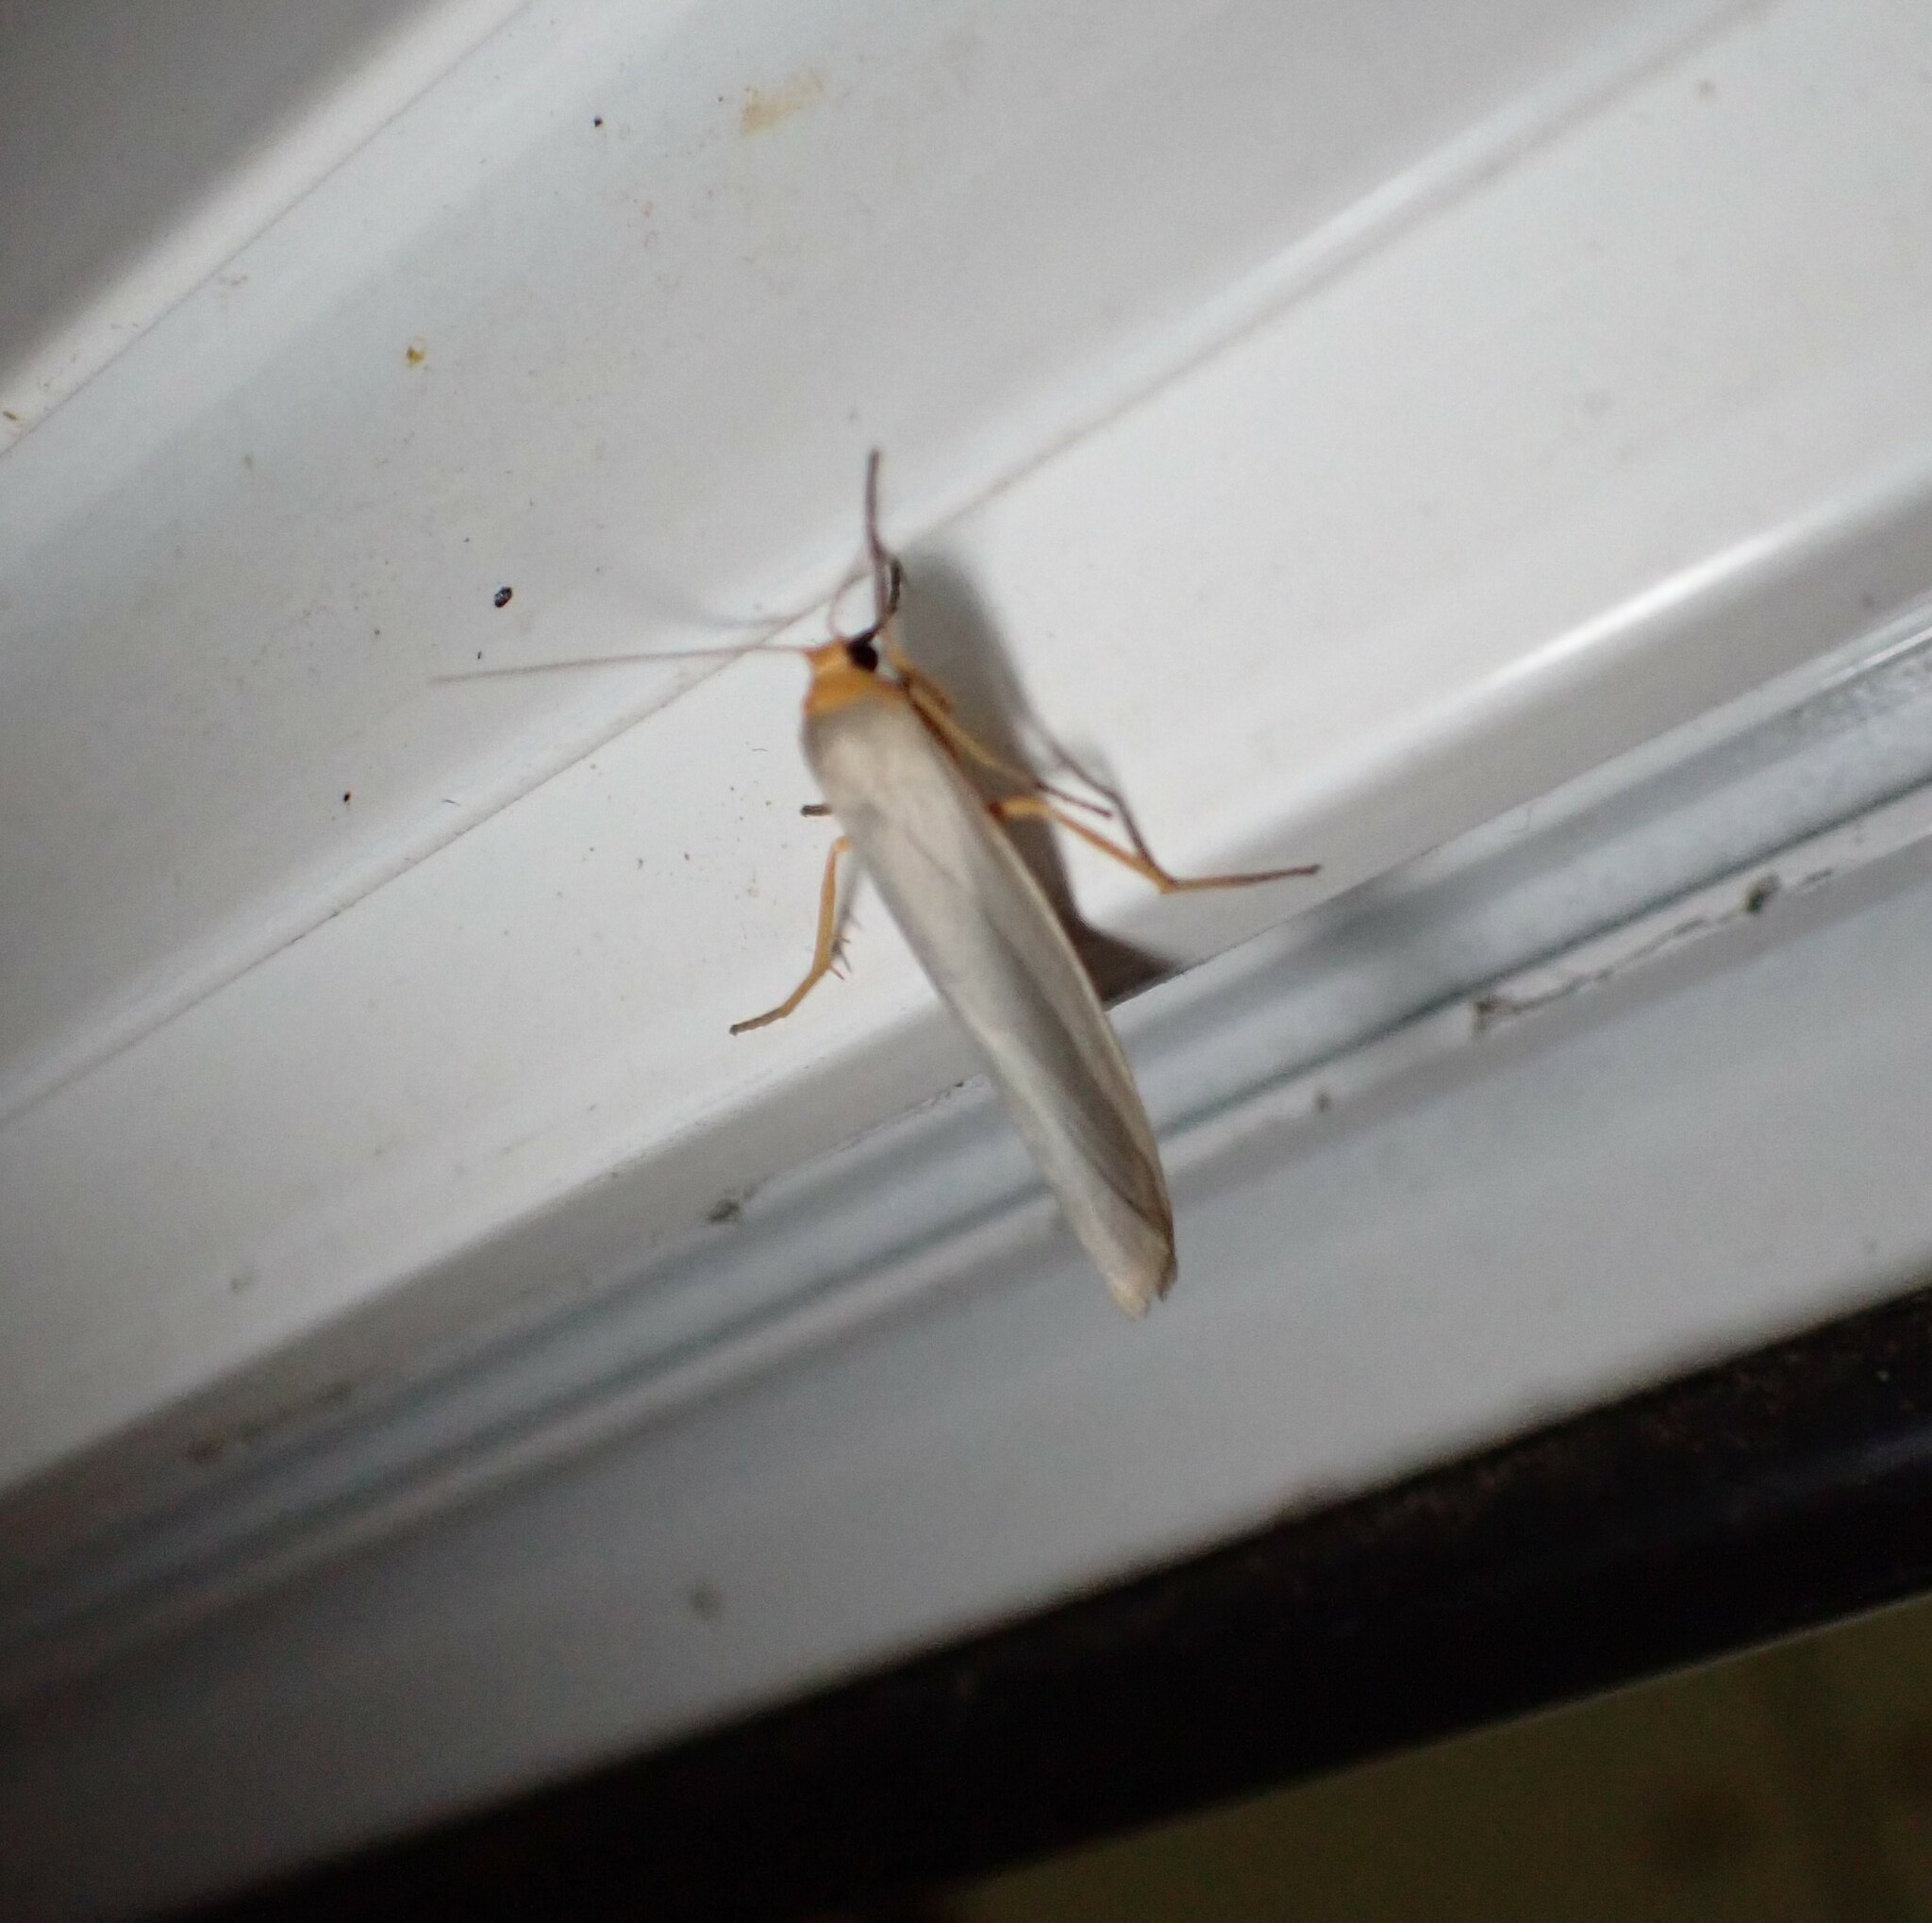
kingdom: Animalia
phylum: Arthropoda
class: Insecta
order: Lepidoptera
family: Erebidae
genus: Eilema
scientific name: Eilema caniola
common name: Hoary footman
